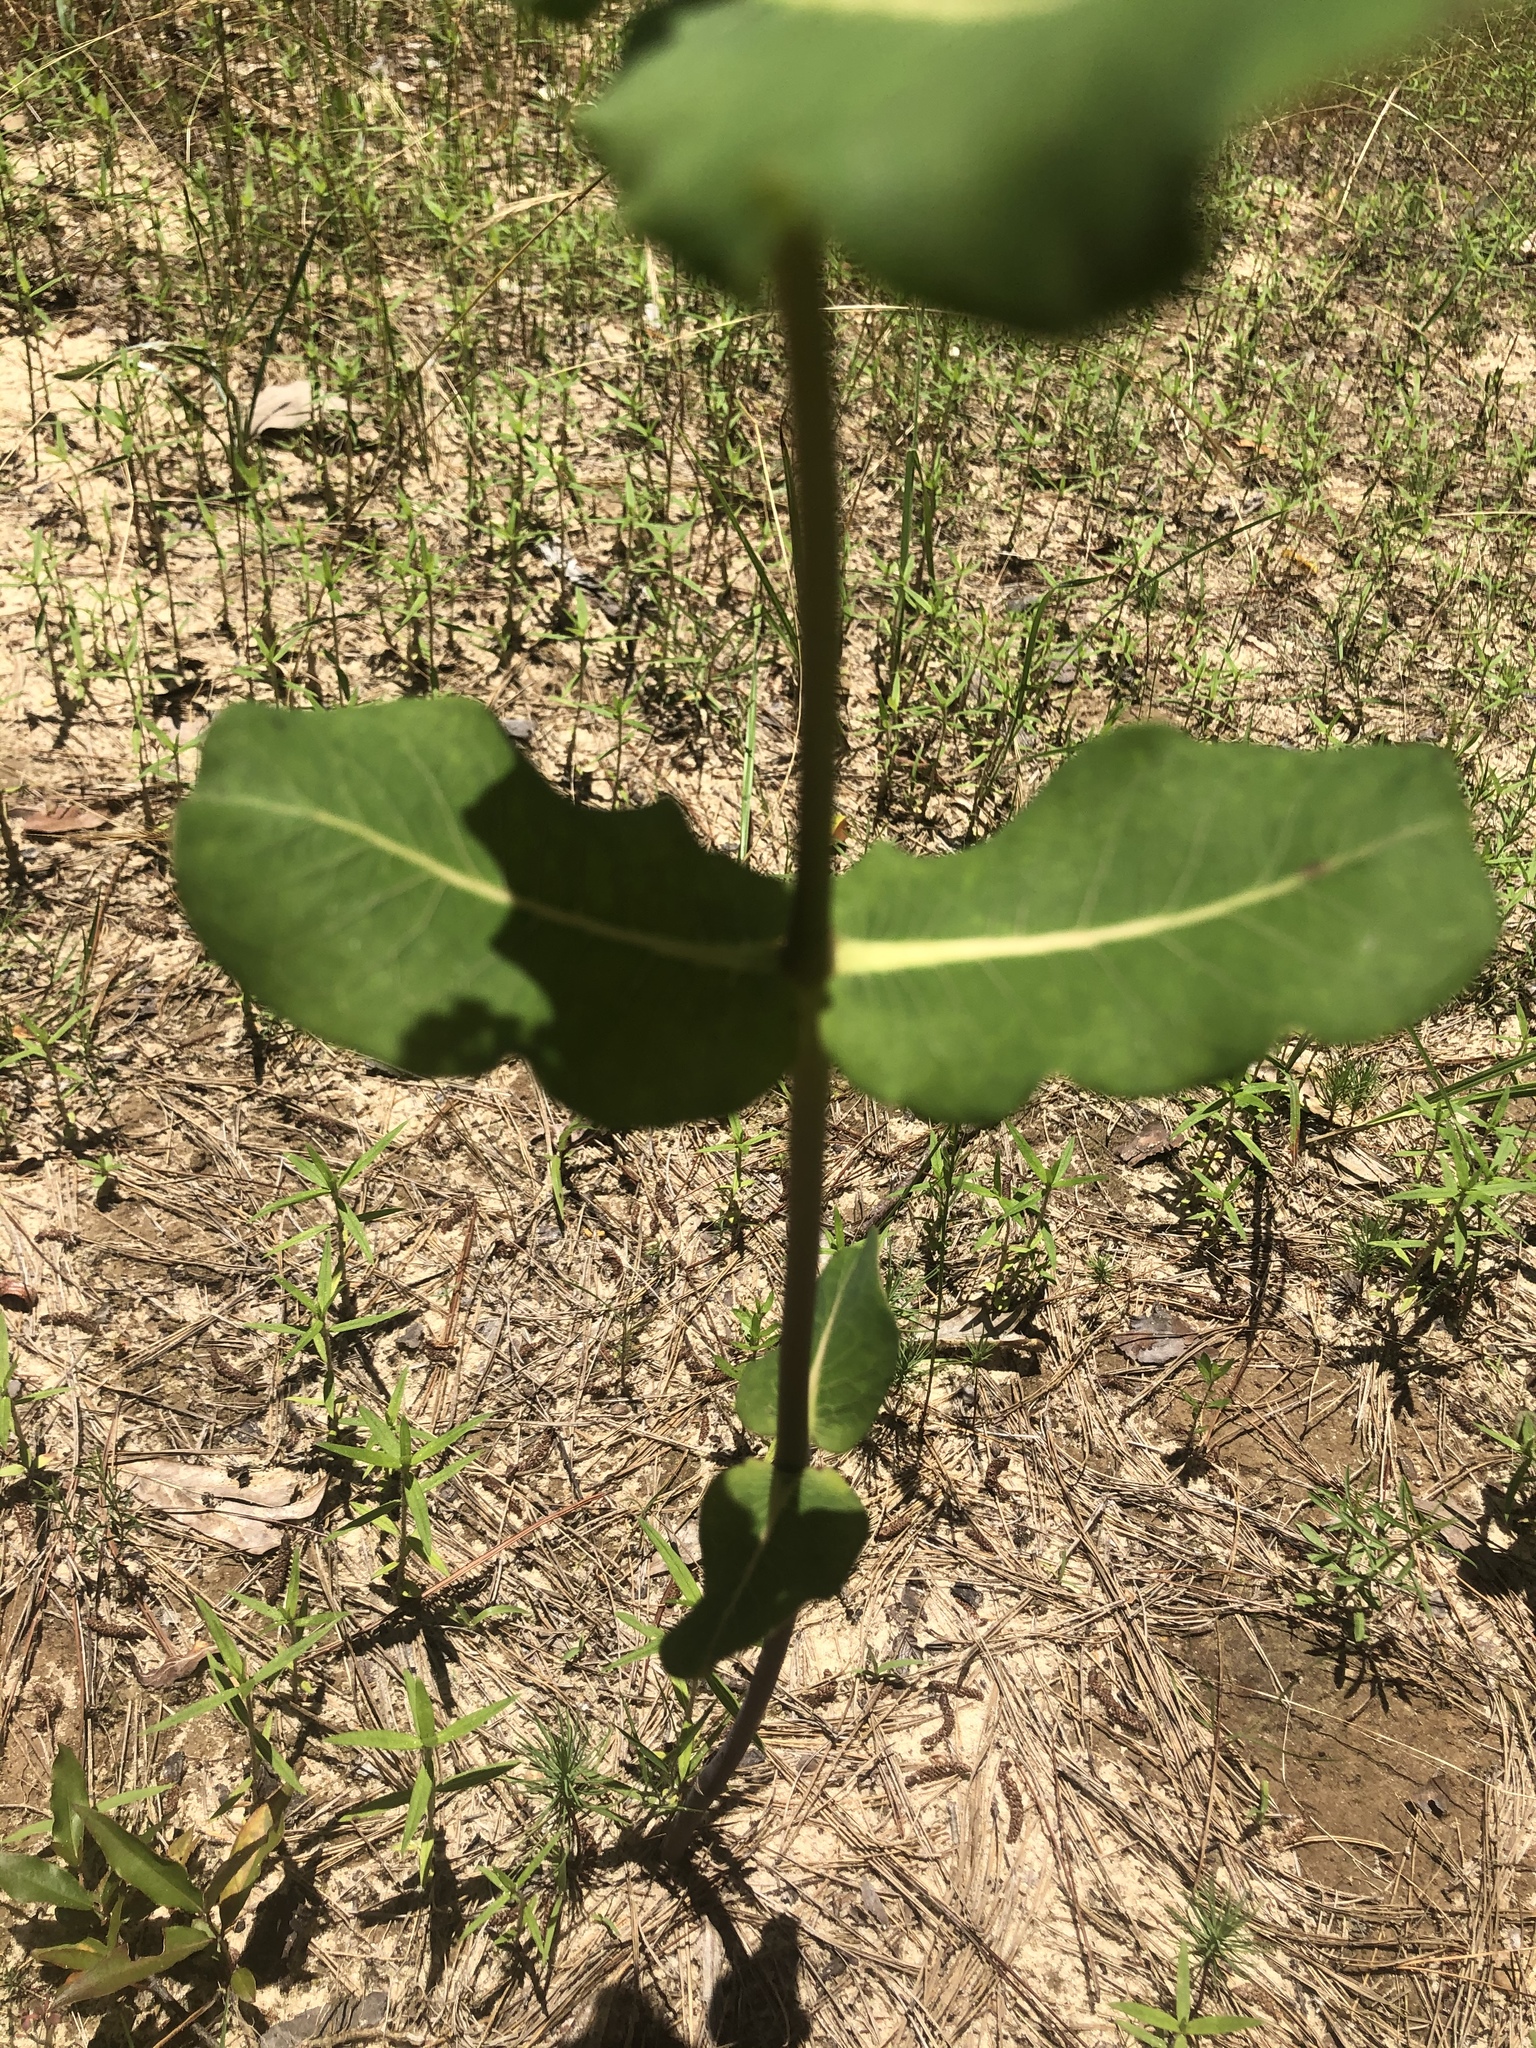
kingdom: Plantae
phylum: Tracheophyta
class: Magnoliopsida
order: Gentianales
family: Apocynaceae
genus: Asclepias
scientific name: Asclepias amplexicaulis
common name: Blunt-leaf milkweed
